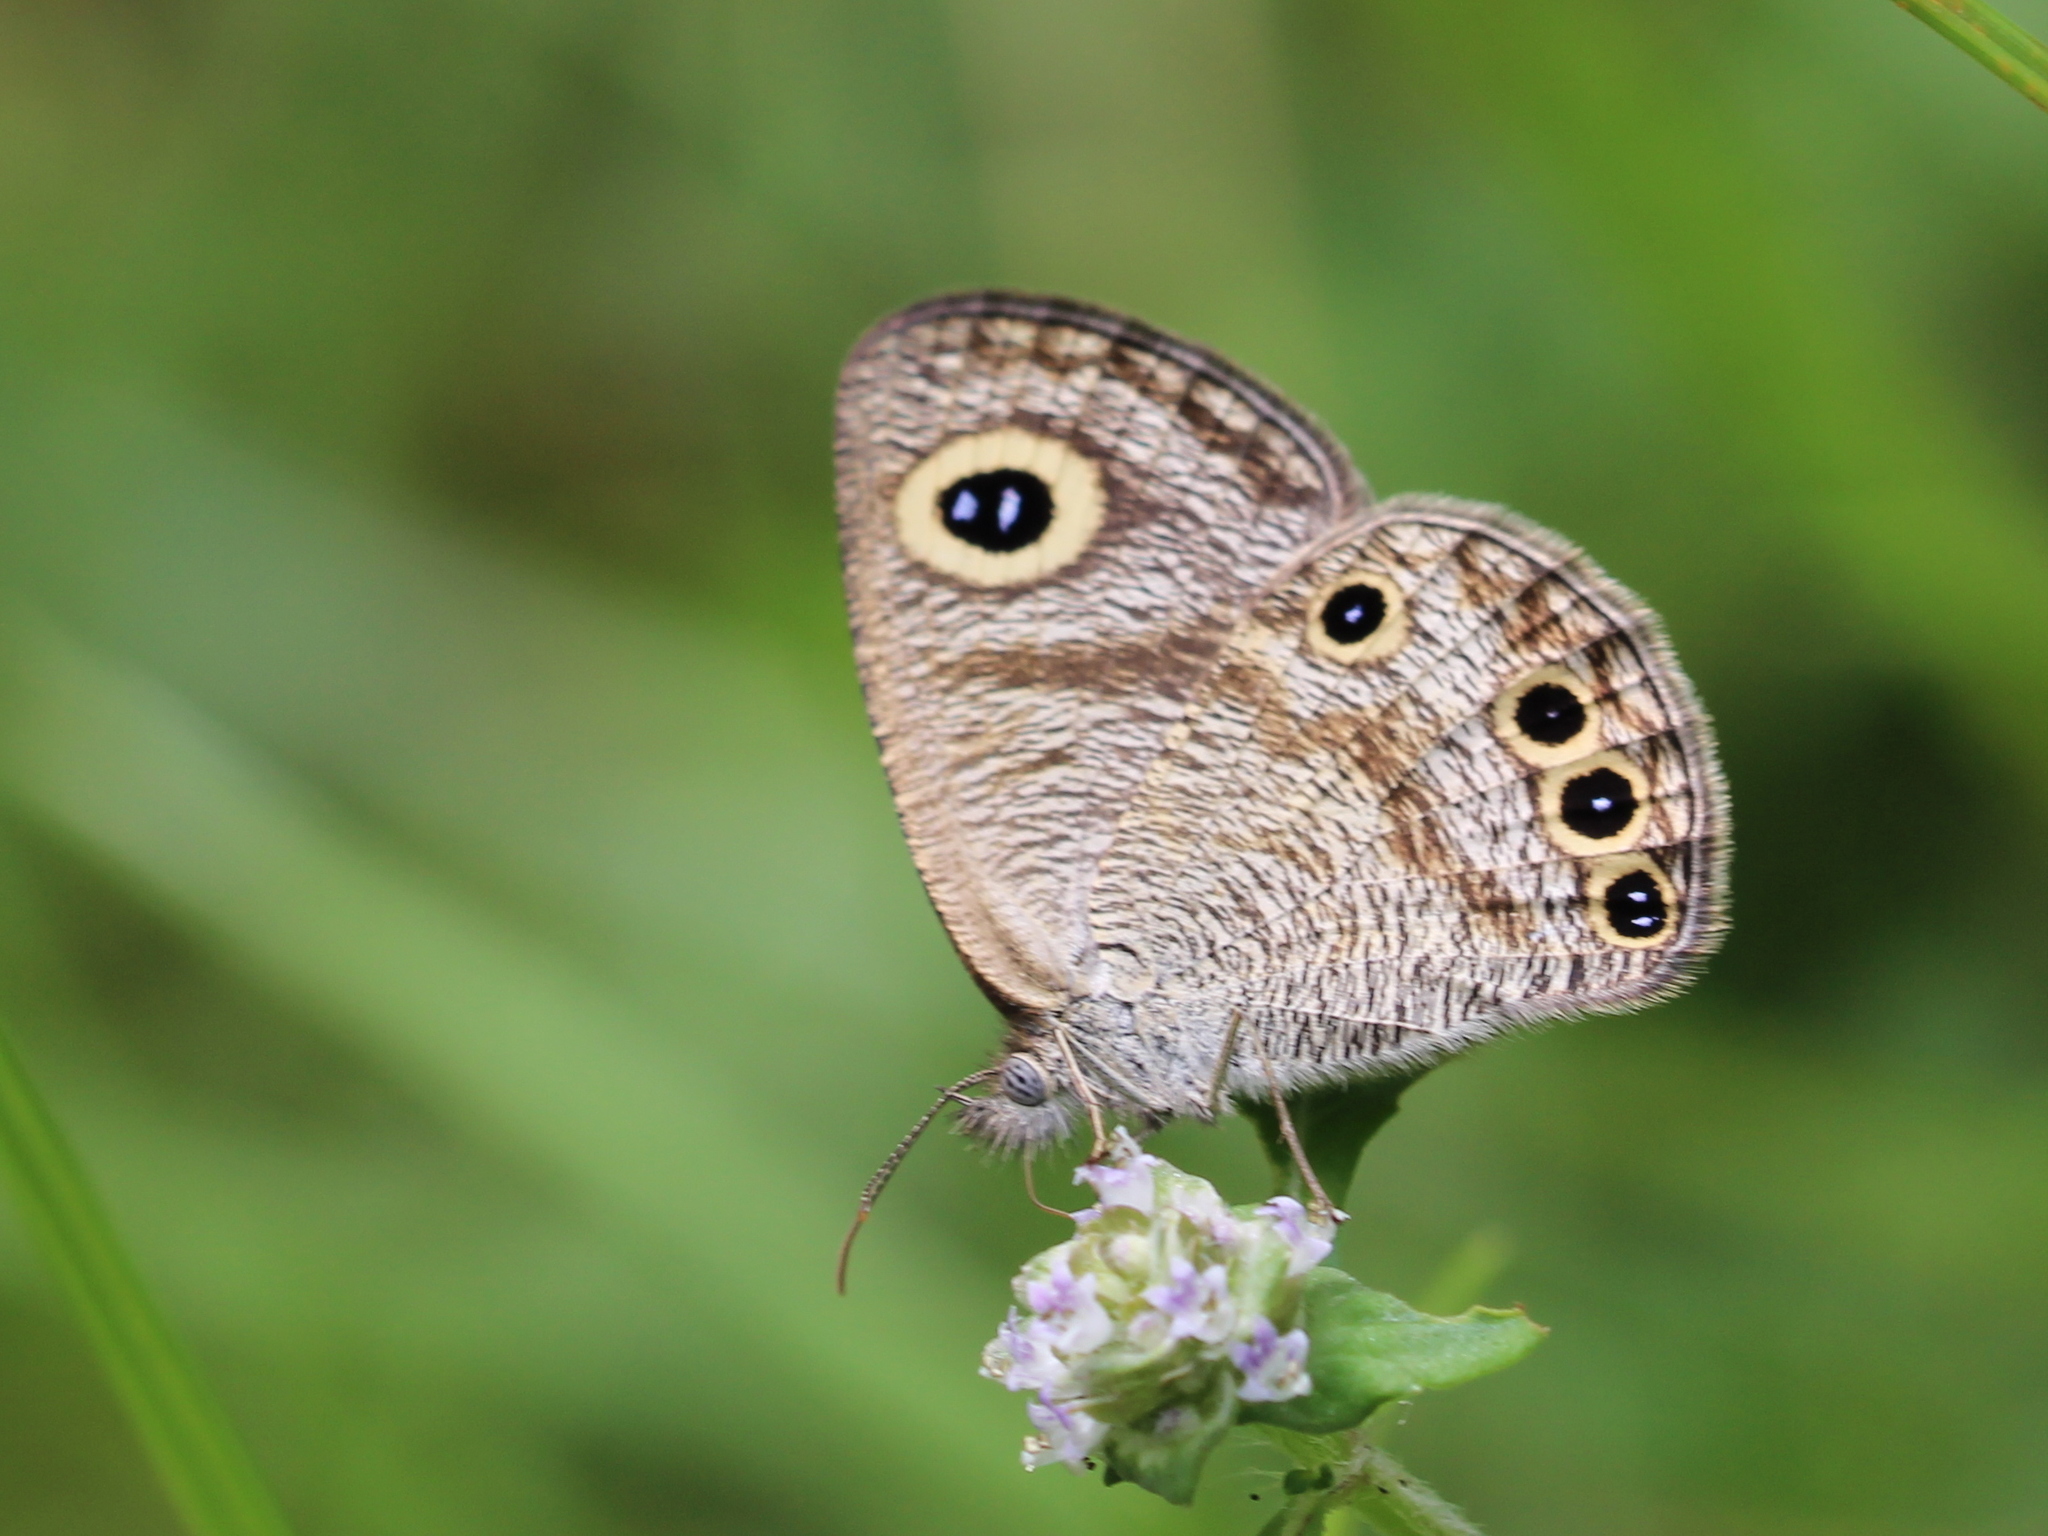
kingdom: Animalia
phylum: Arthropoda
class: Insecta
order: Lepidoptera
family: Nymphalidae
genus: Ypthima
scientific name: Ypthima huebneri
